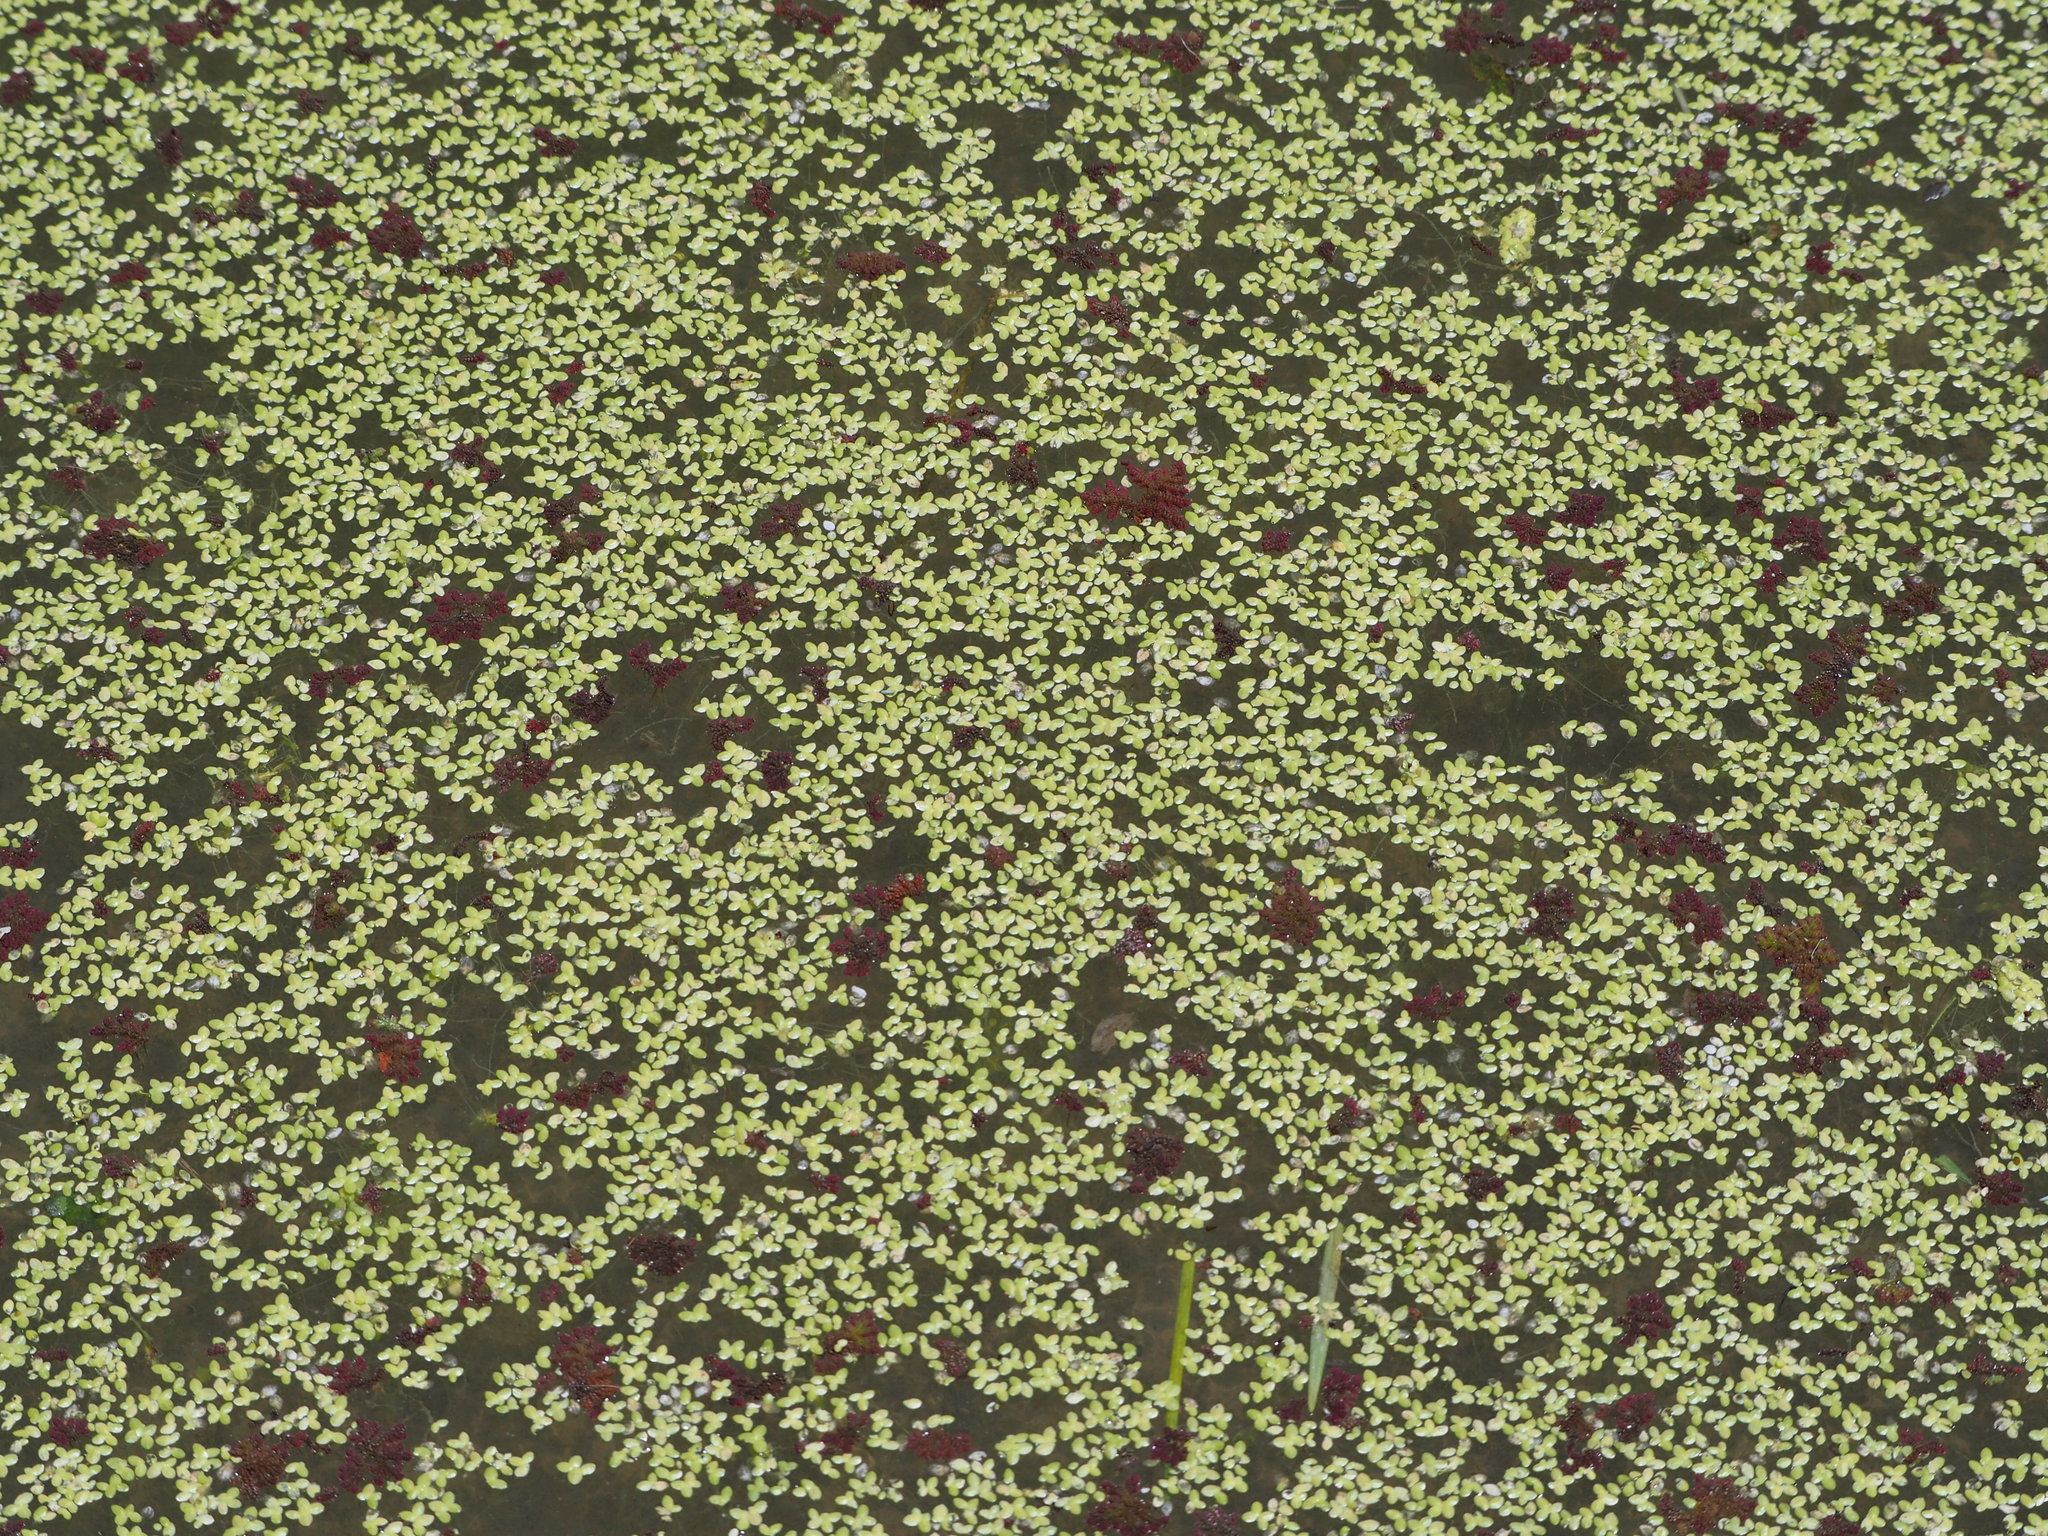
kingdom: Plantae
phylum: Tracheophyta
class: Liliopsida
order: Alismatales
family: Araceae
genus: Lemna
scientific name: Lemna aequinoctialis
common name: Duckweed
